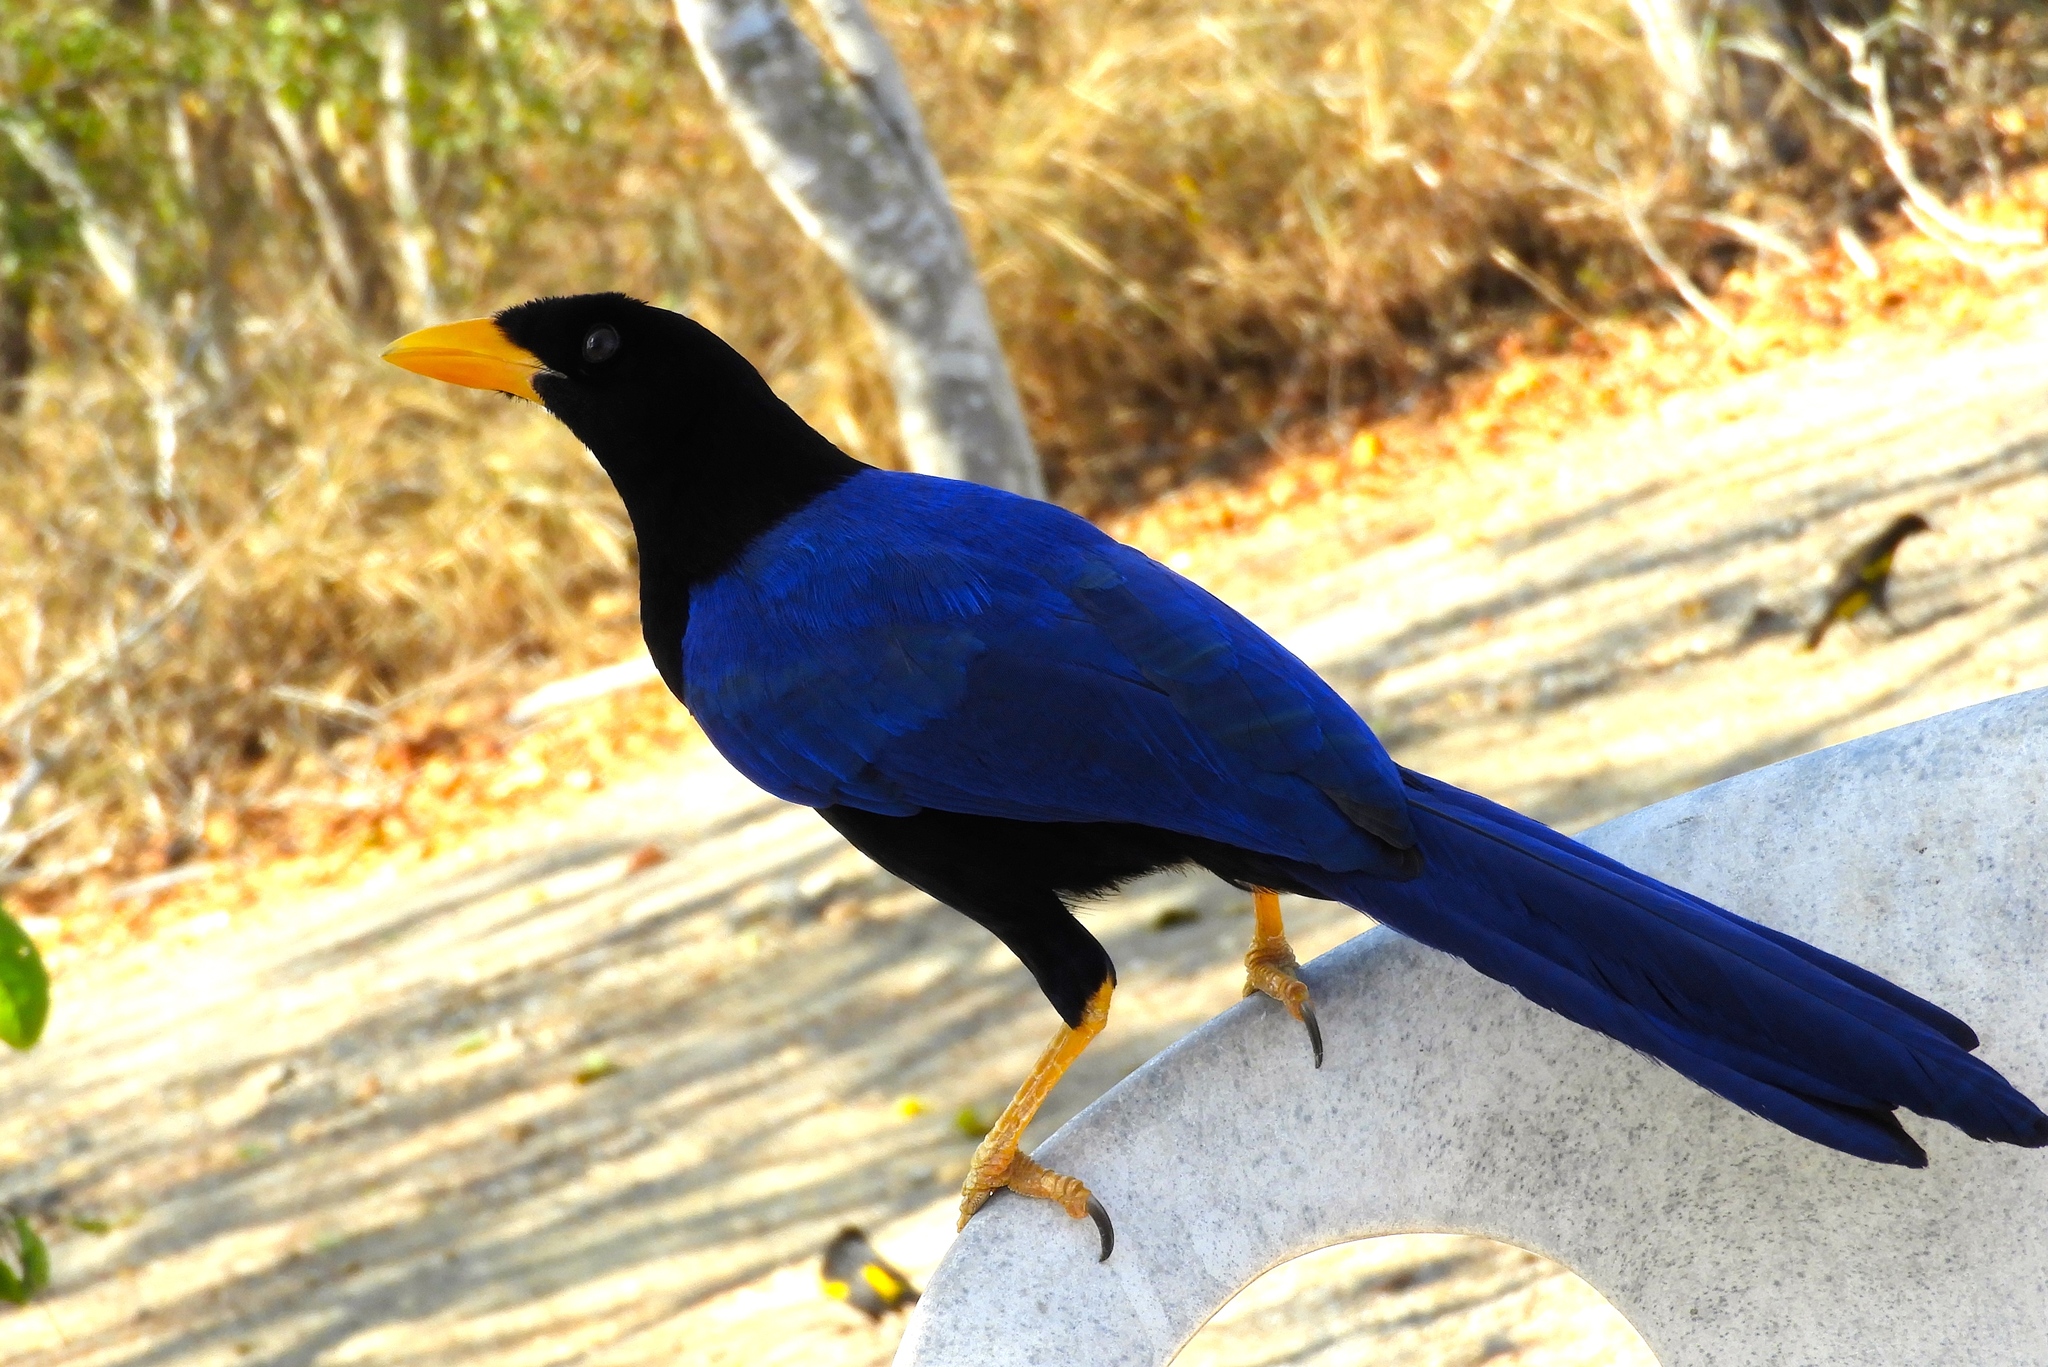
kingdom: Animalia
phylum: Chordata
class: Aves
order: Passeriformes
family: Corvidae
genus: Cyanocorax
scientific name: Cyanocorax beecheii
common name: Purplish-backed jay
